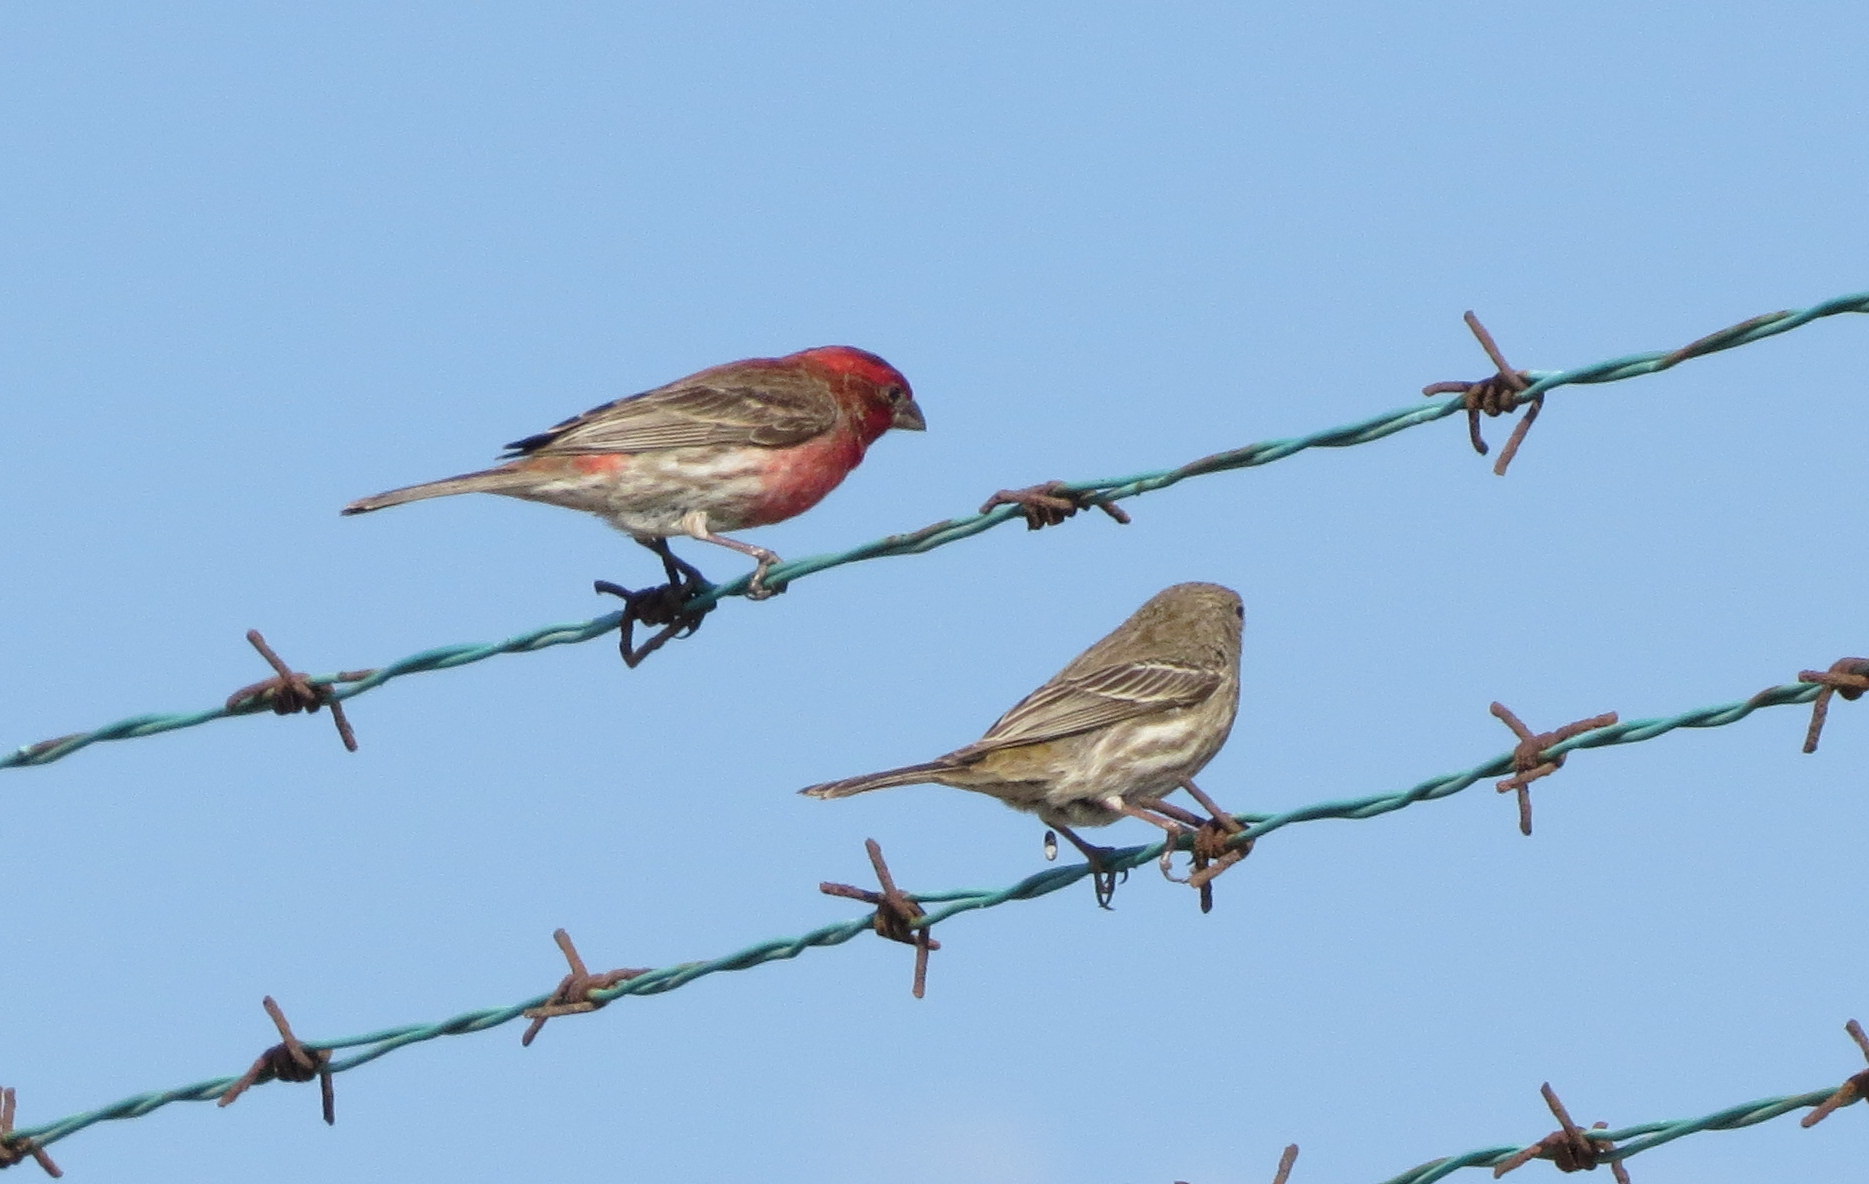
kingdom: Animalia
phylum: Chordata
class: Aves
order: Passeriformes
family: Fringillidae
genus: Haemorhous
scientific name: Haemorhous mexicanus
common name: House finch
